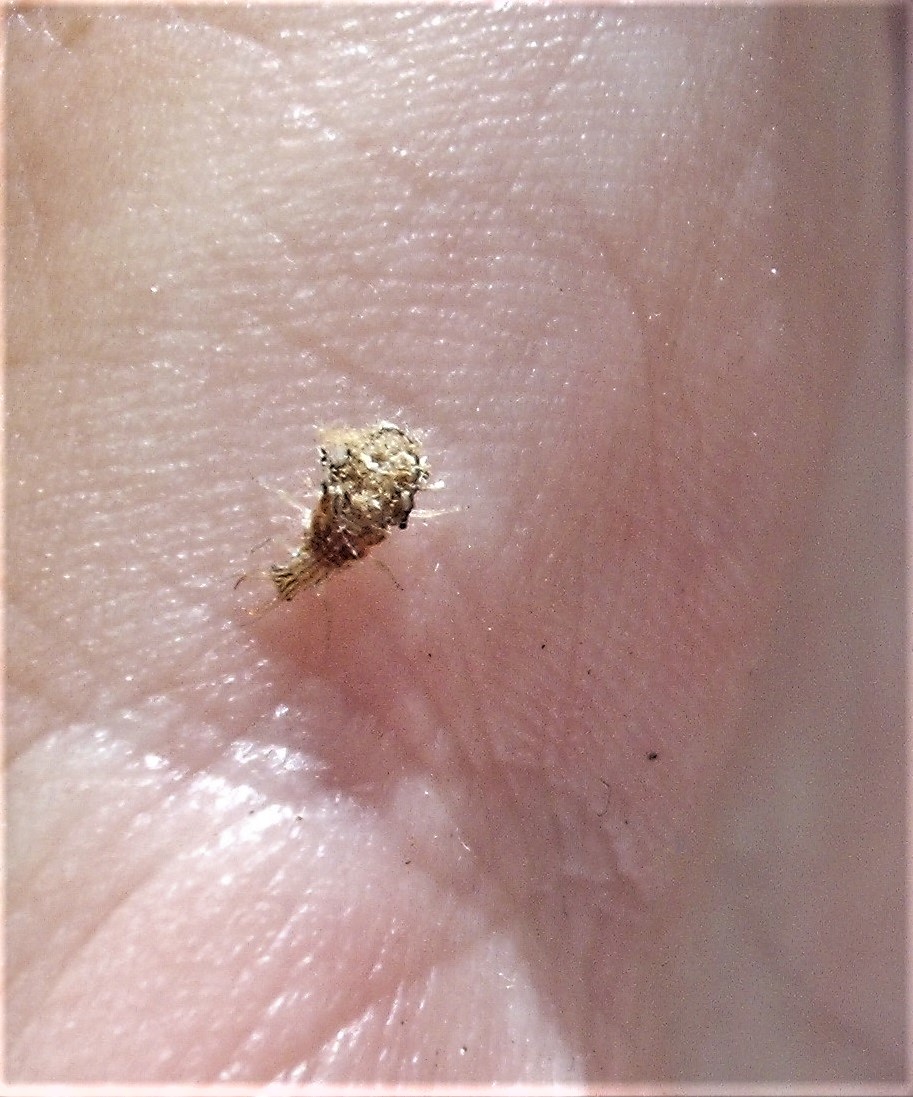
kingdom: Animalia
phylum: Arthropoda
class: Insecta
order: Neuroptera
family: Chrysopidae
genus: Mallada
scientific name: Mallada basalis
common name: Green lacewing
